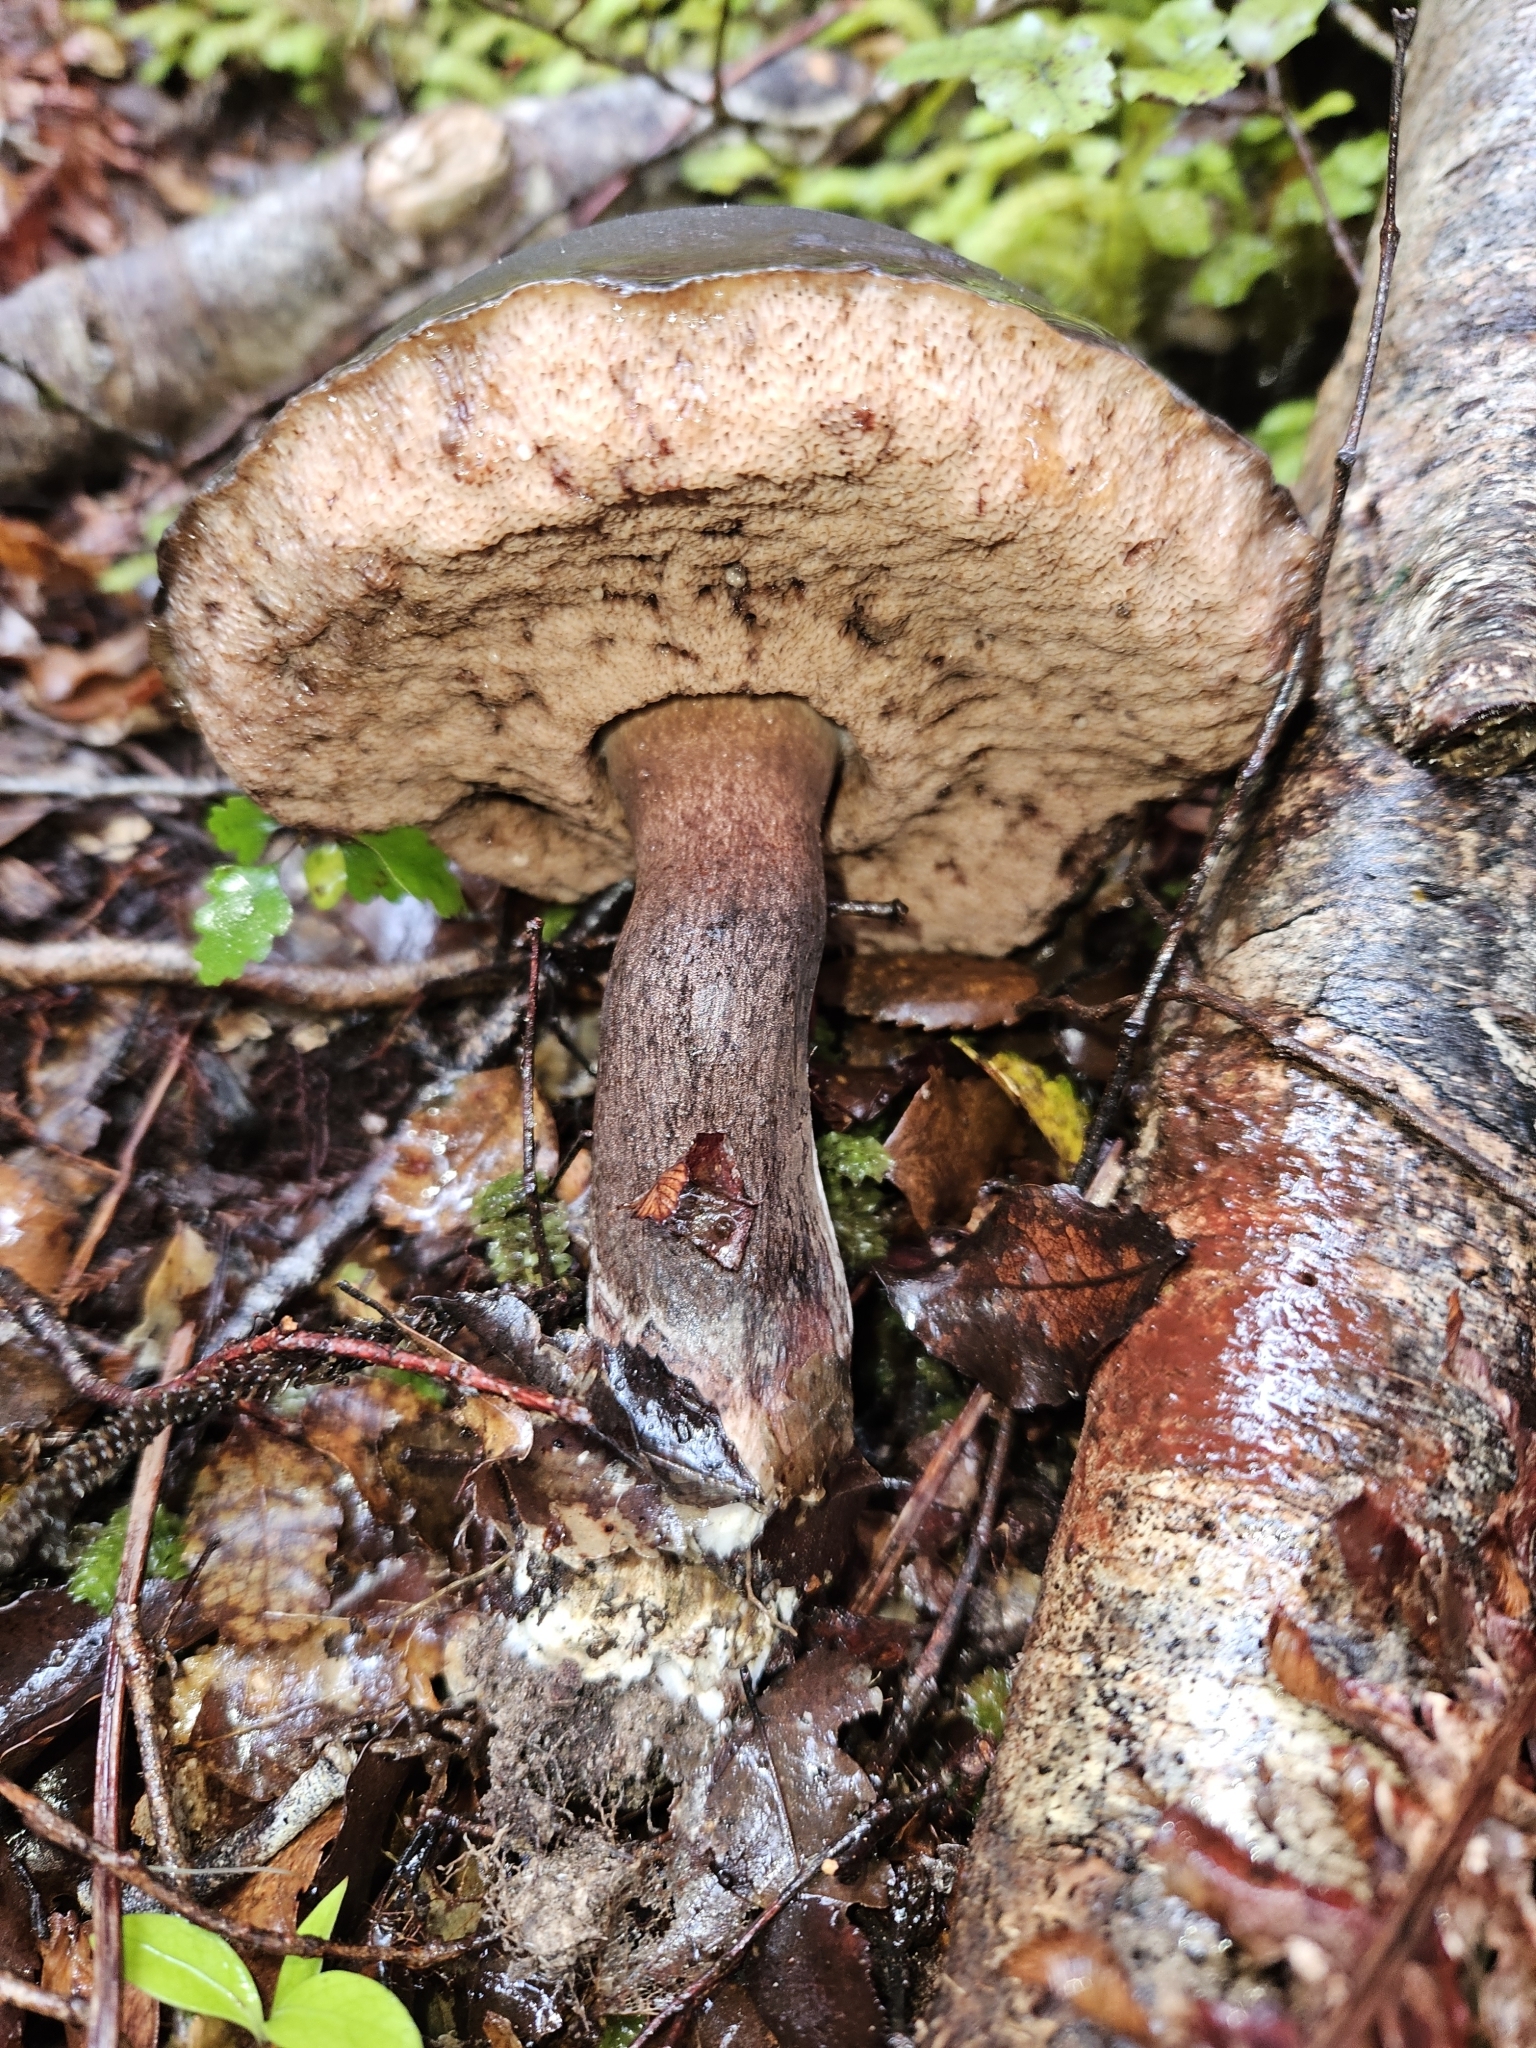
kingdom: Fungi
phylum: Basidiomycota
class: Agaricomycetes
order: Boletales
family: Boletaceae
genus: Porphyrellus
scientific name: Porphyrellus formosus
